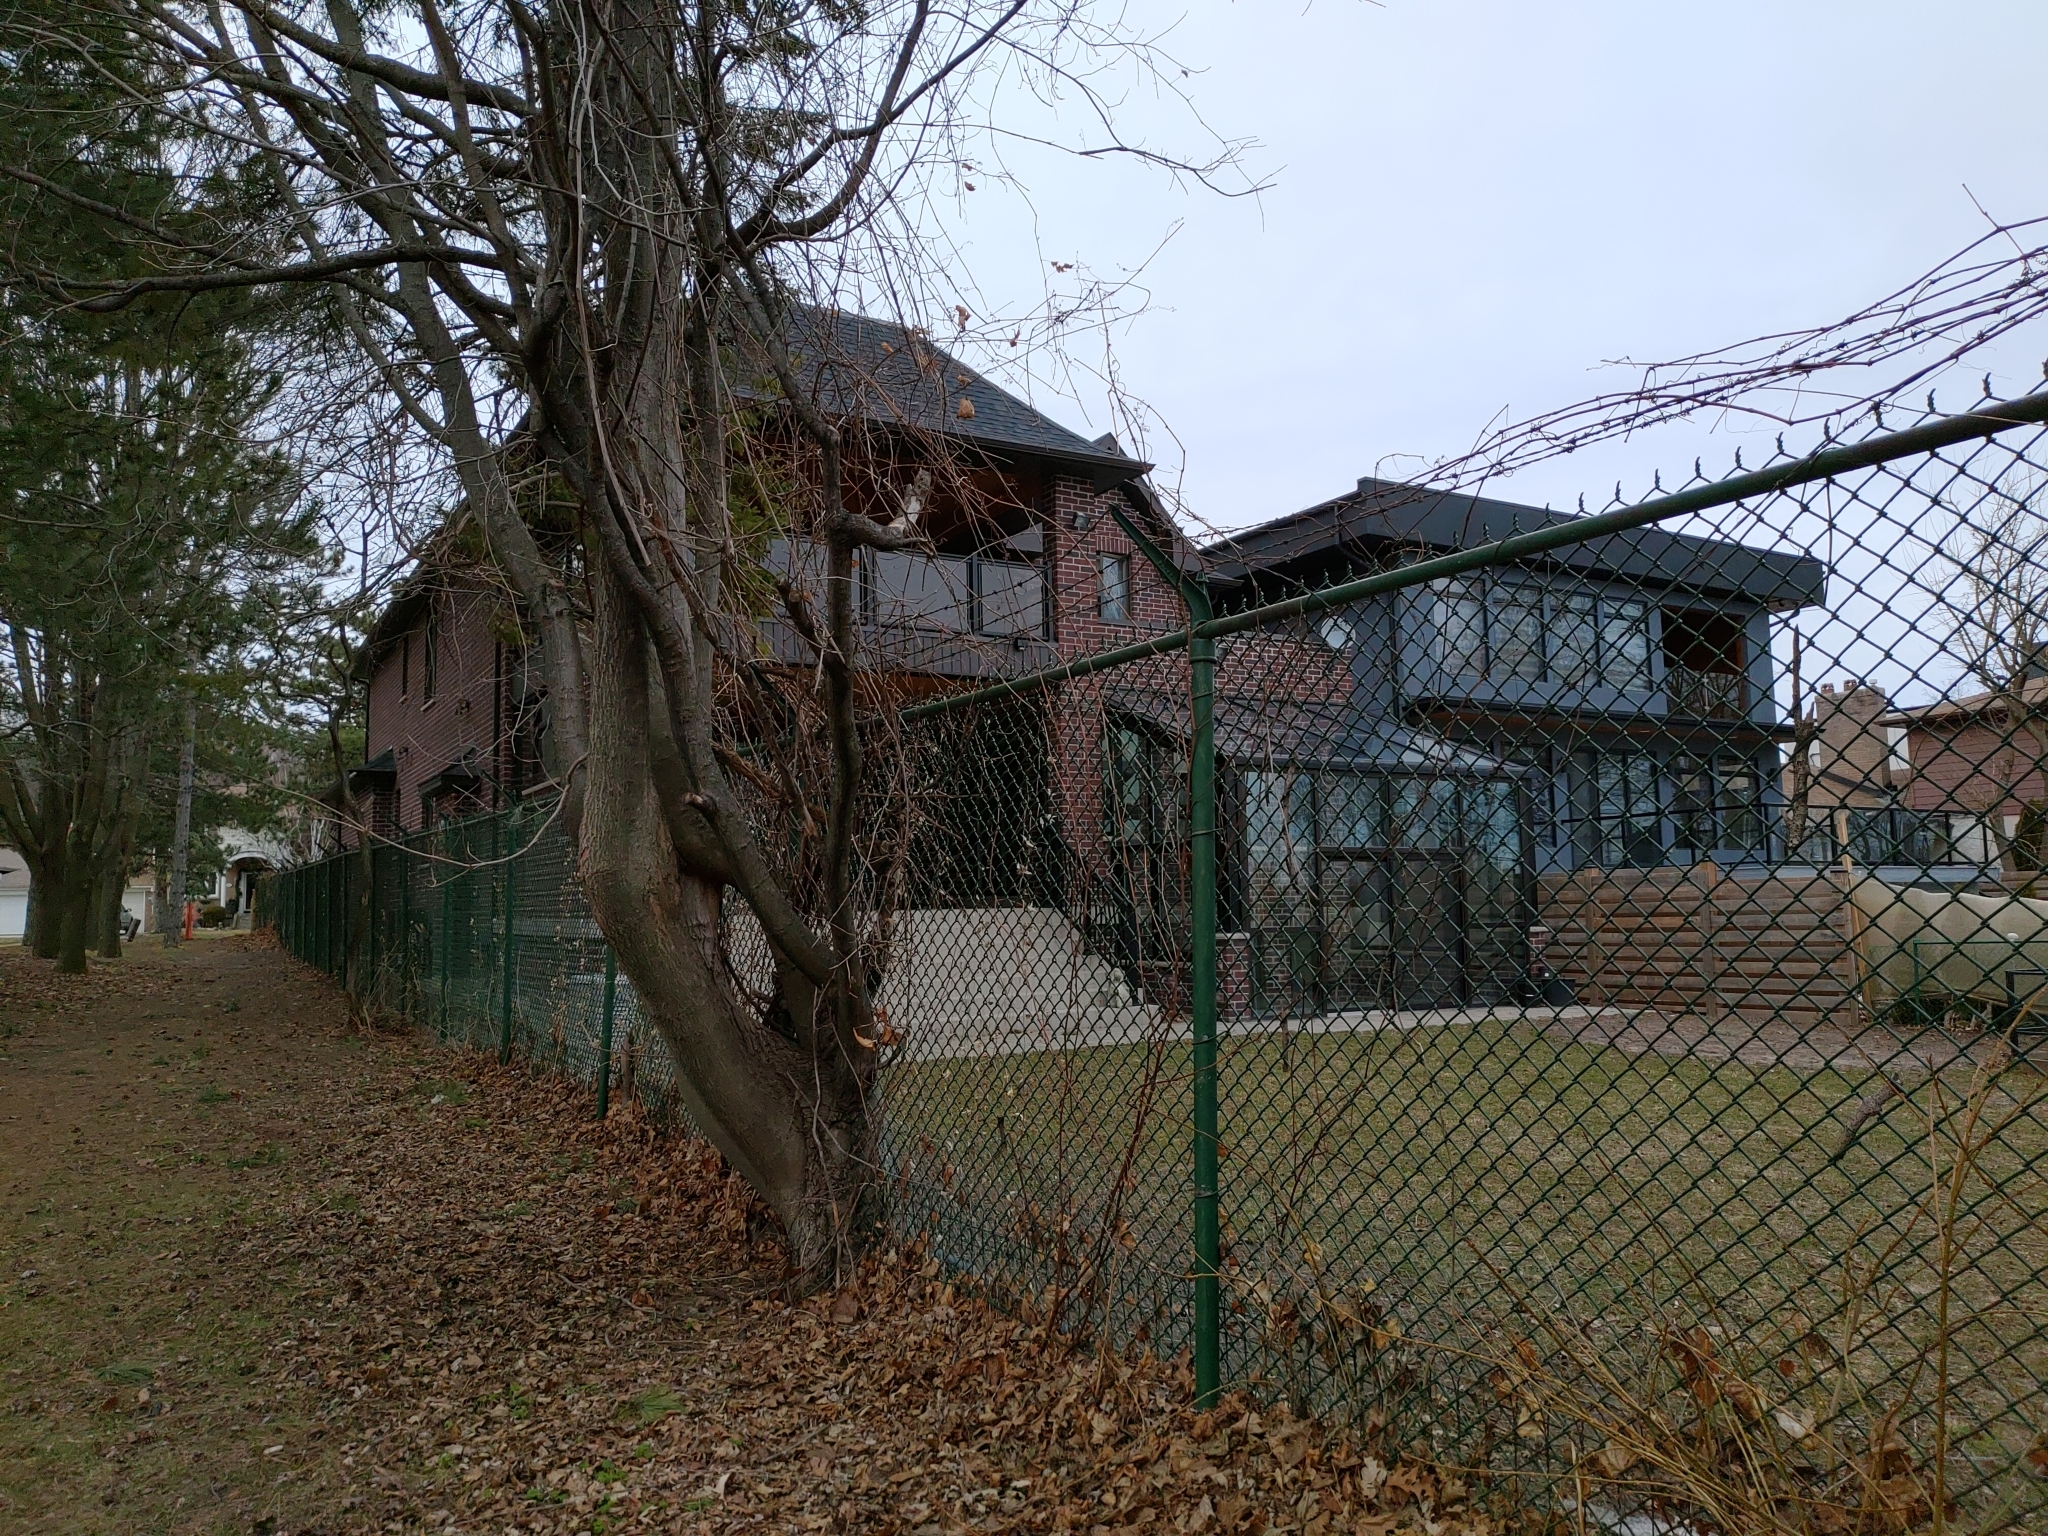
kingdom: Plantae
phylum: Tracheophyta
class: Magnoliopsida
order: Sapindales
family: Sapindaceae
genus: Acer
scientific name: Acer platanoides
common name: Norway maple
